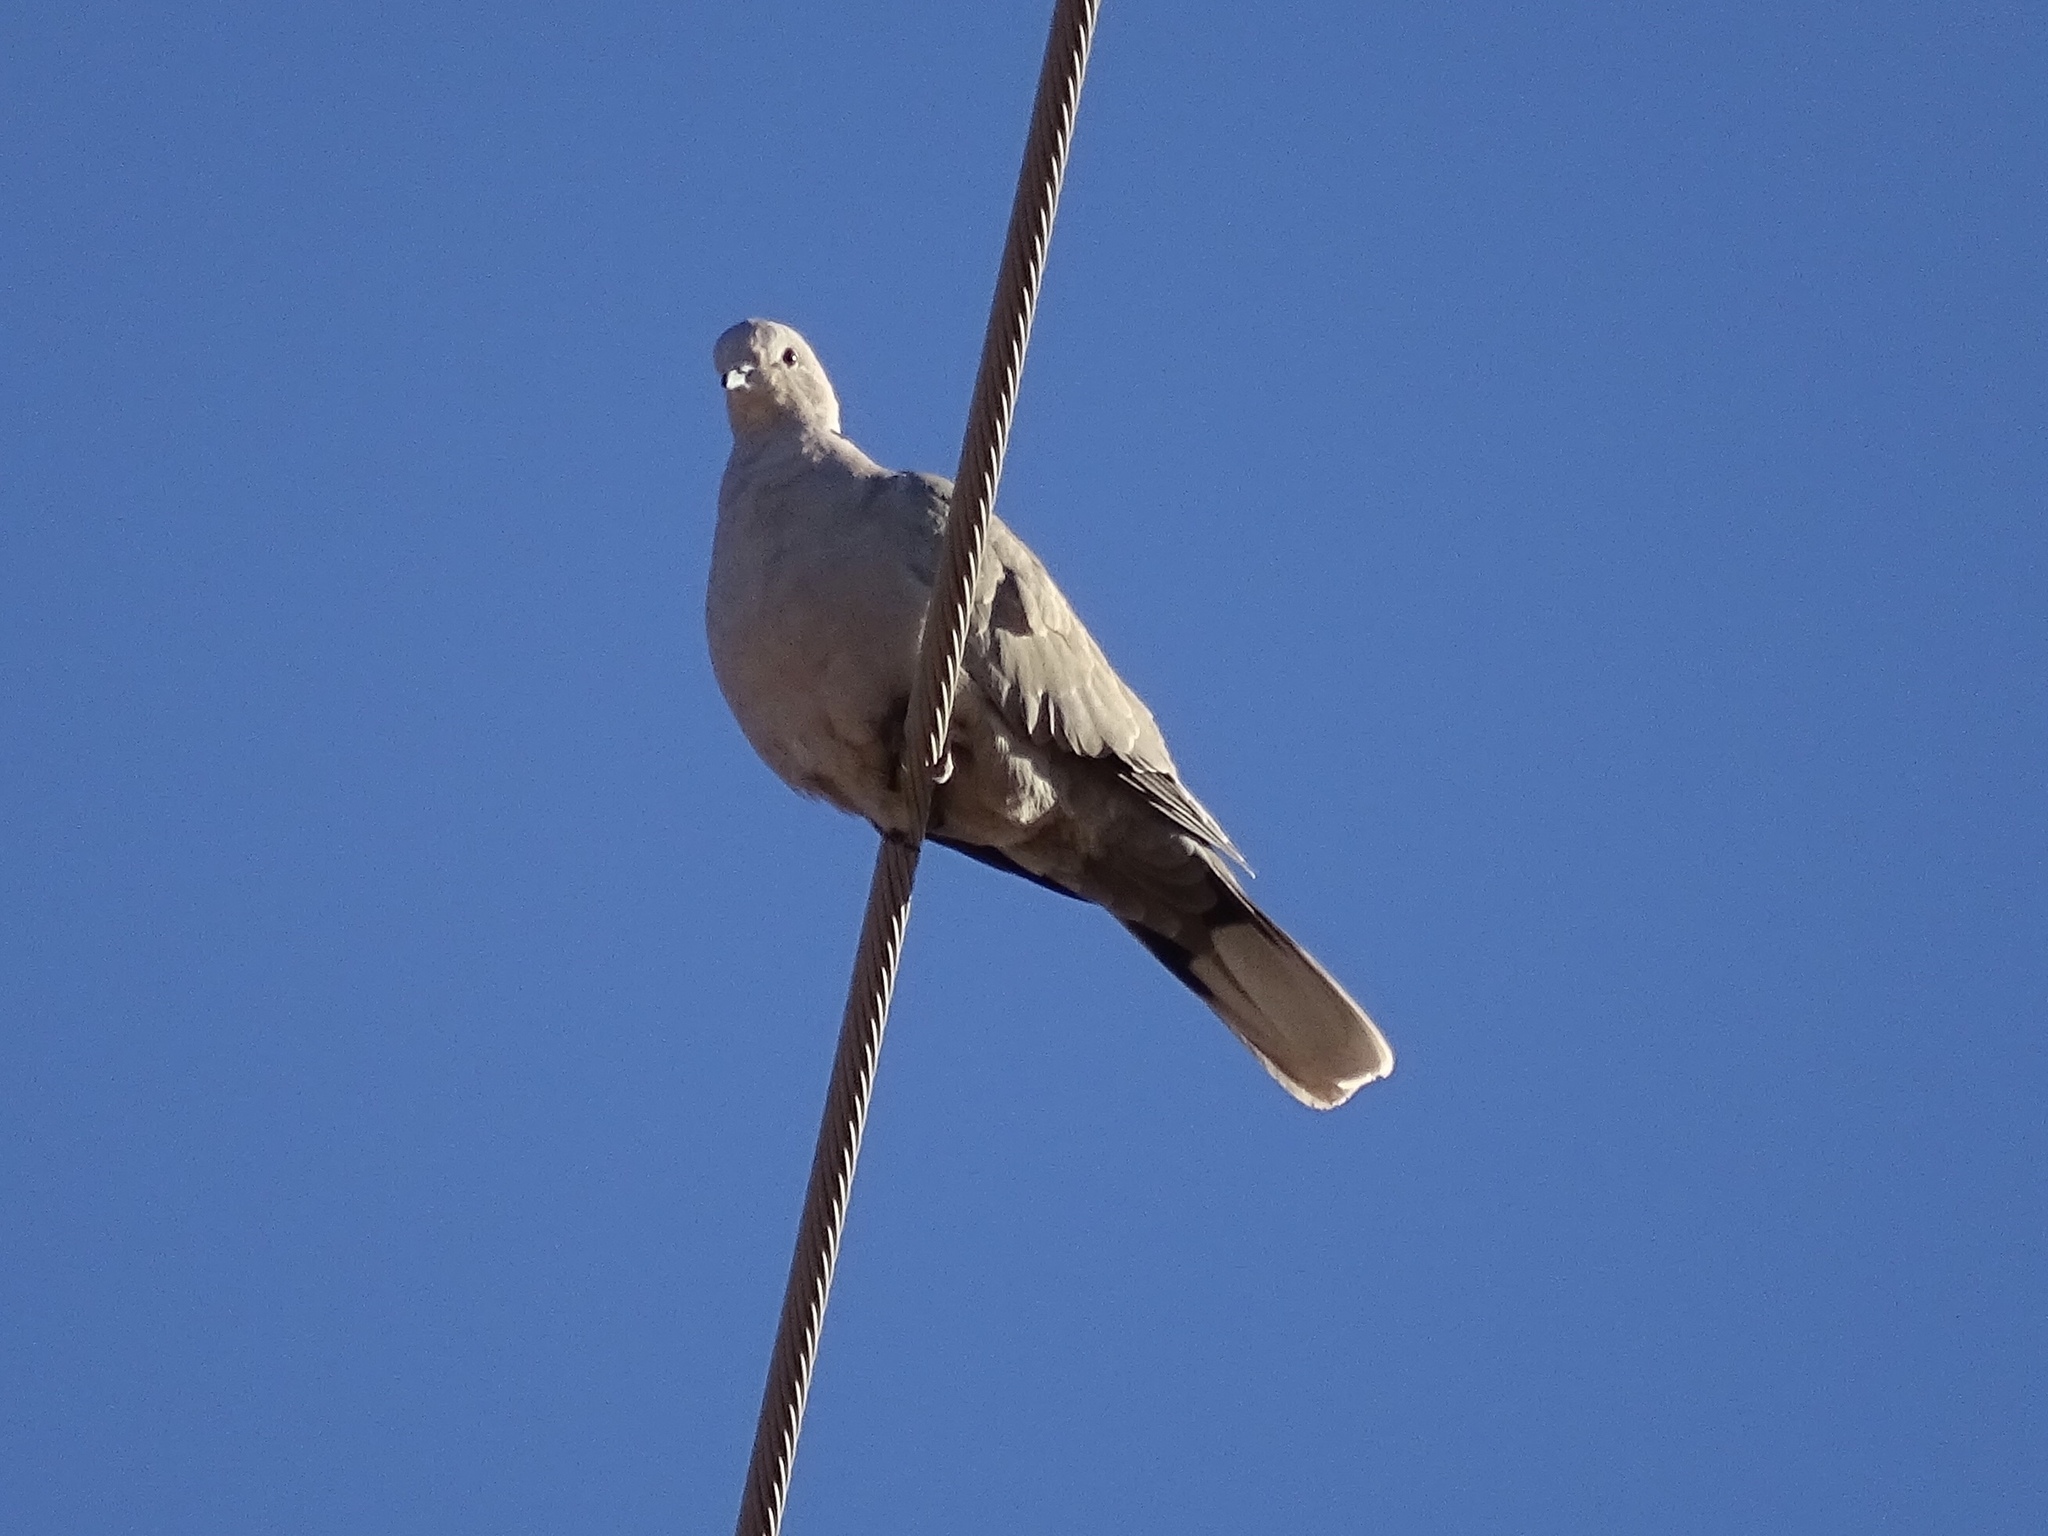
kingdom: Animalia
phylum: Chordata
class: Aves
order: Columbiformes
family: Columbidae
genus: Streptopelia
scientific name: Streptopelia decaocto
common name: Eurasian collared dove
